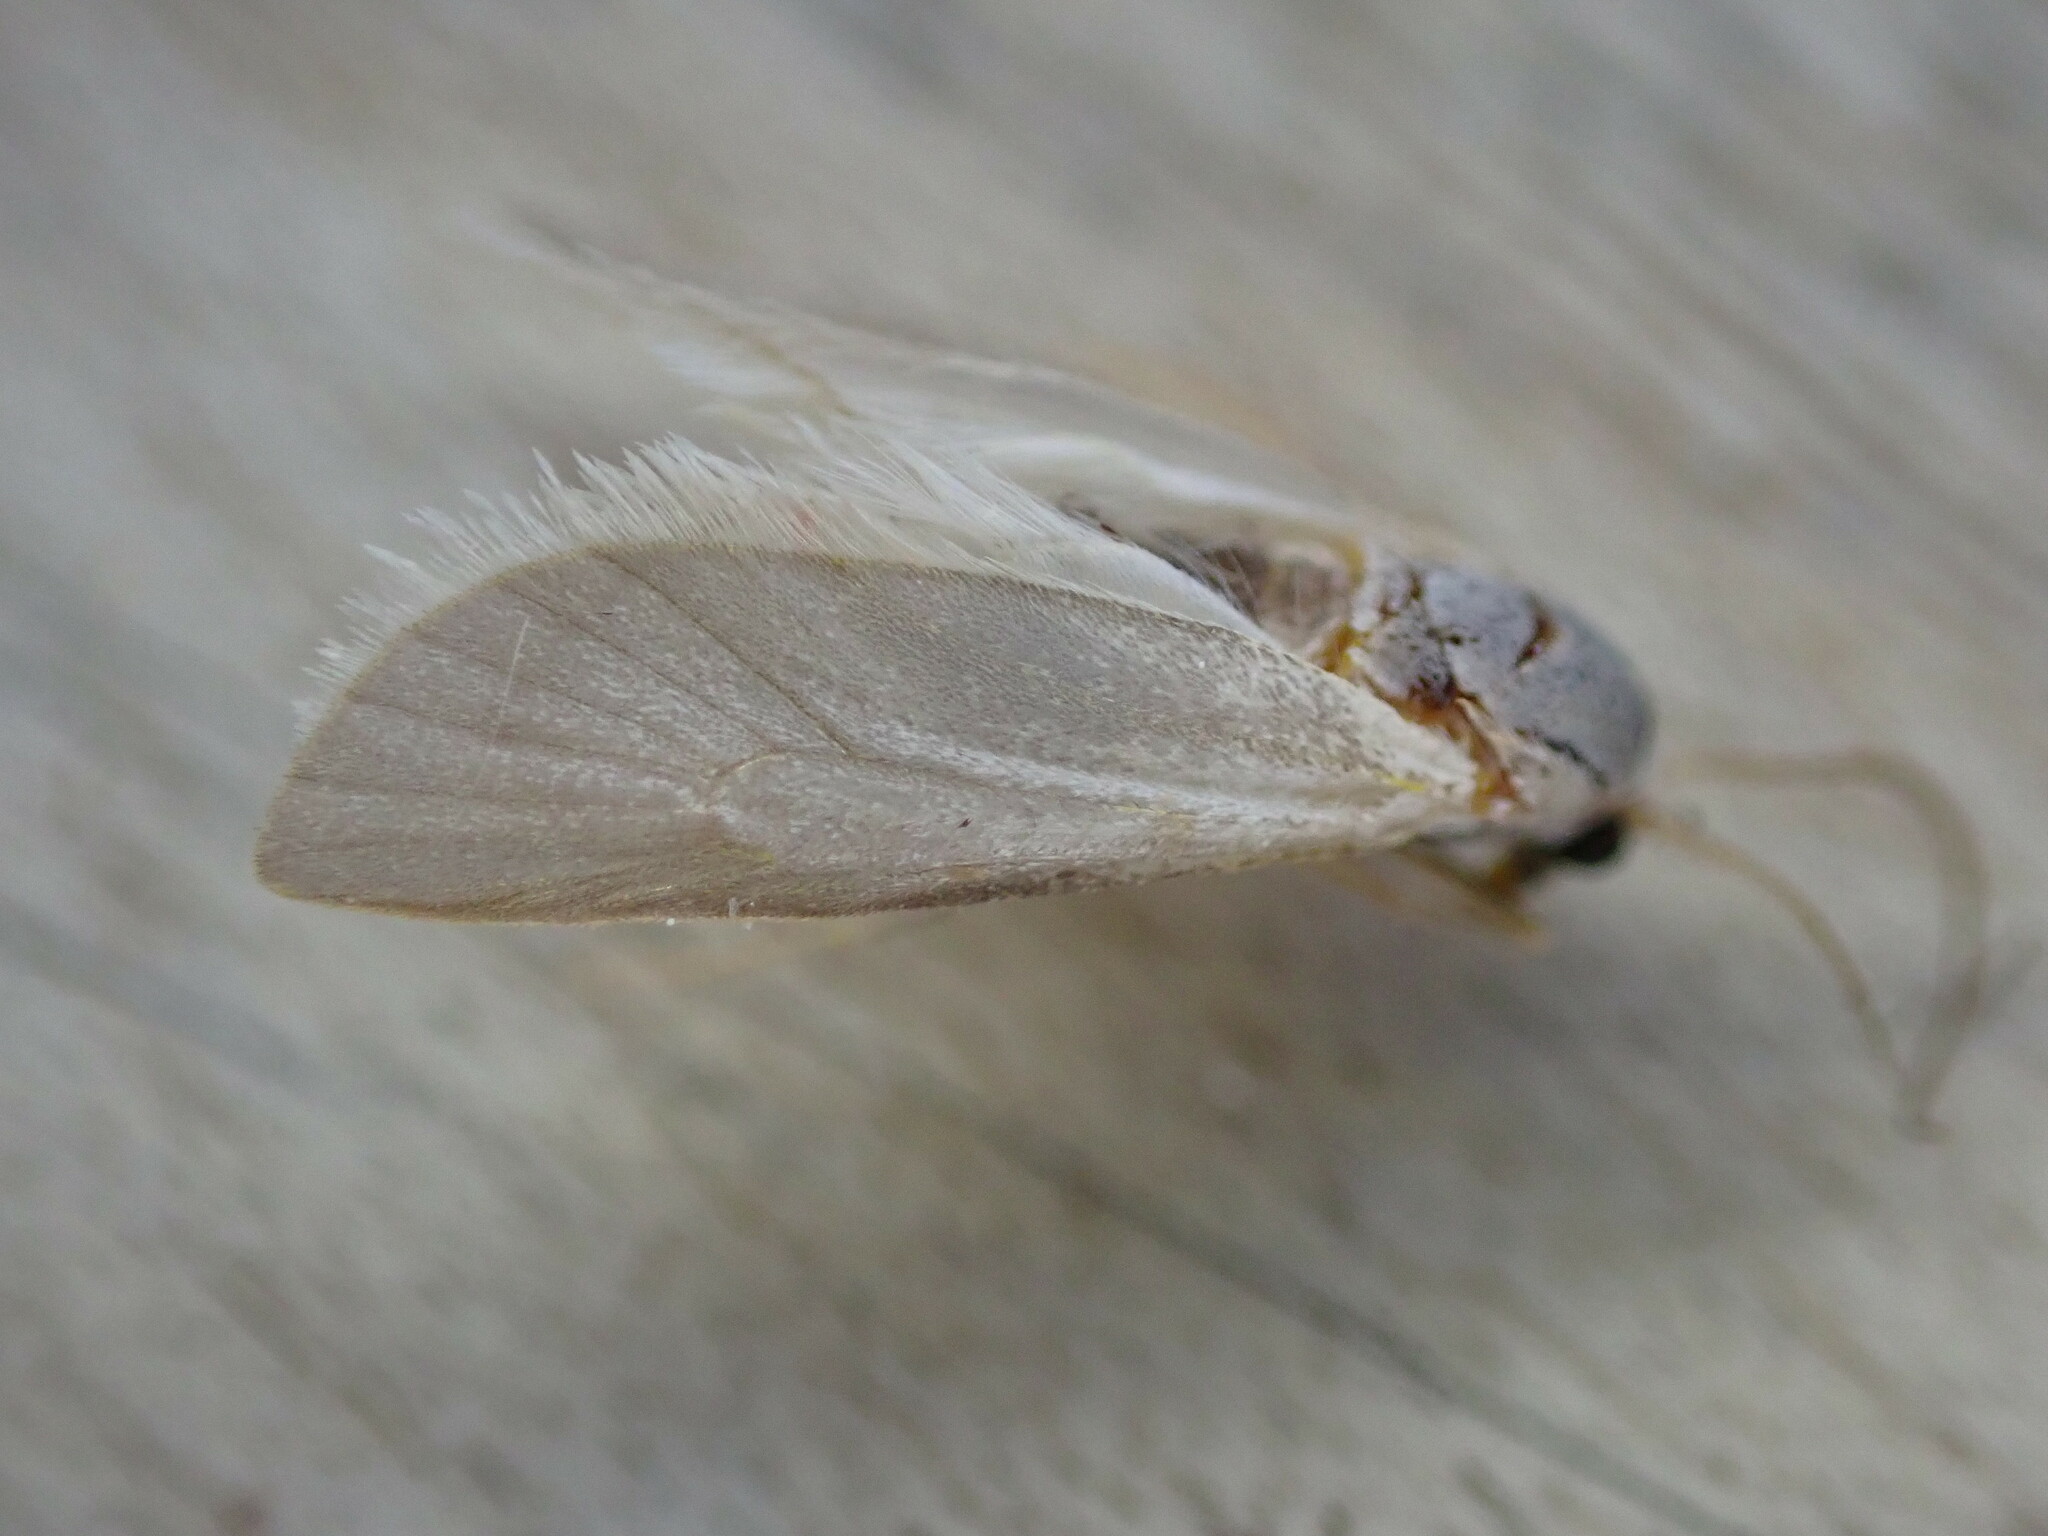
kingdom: Animalia
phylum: Arthropoda
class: Insecta
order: Lepidoptera
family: Crambidae
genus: Acentria
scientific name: Acentria ephemerella
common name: European water moth
